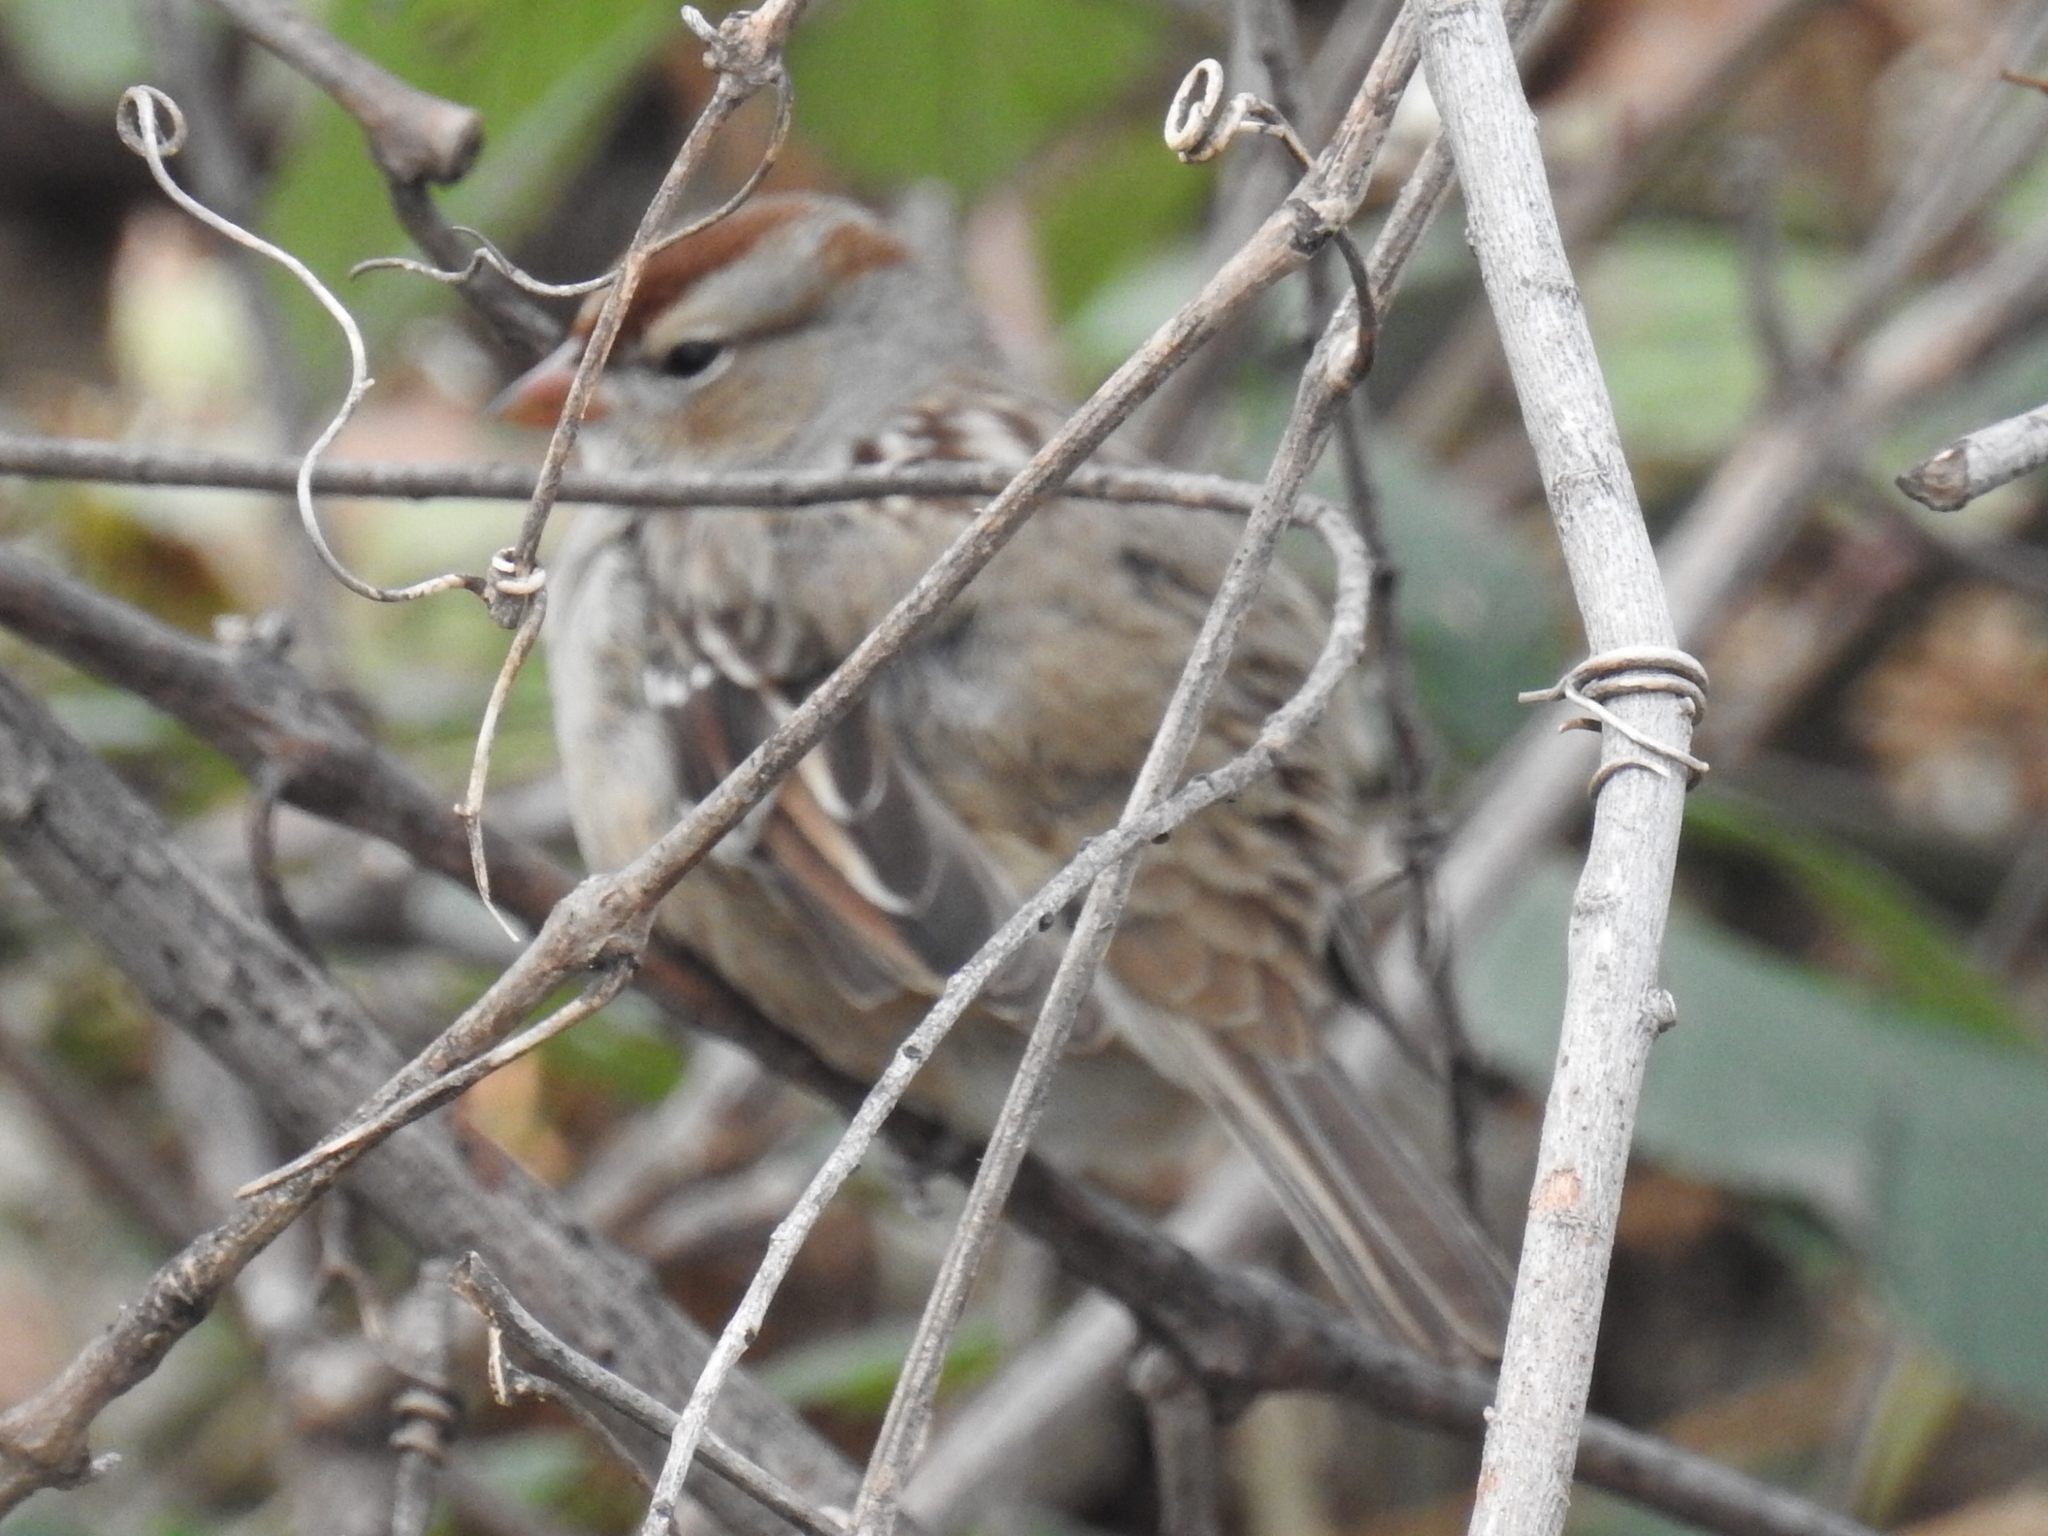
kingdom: Animalia
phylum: Chordata
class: Aves
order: Passeriformes
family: Passerellidae
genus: Zonotrichia
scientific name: Zonotrichia leucophrys
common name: White-crowned sparrow
